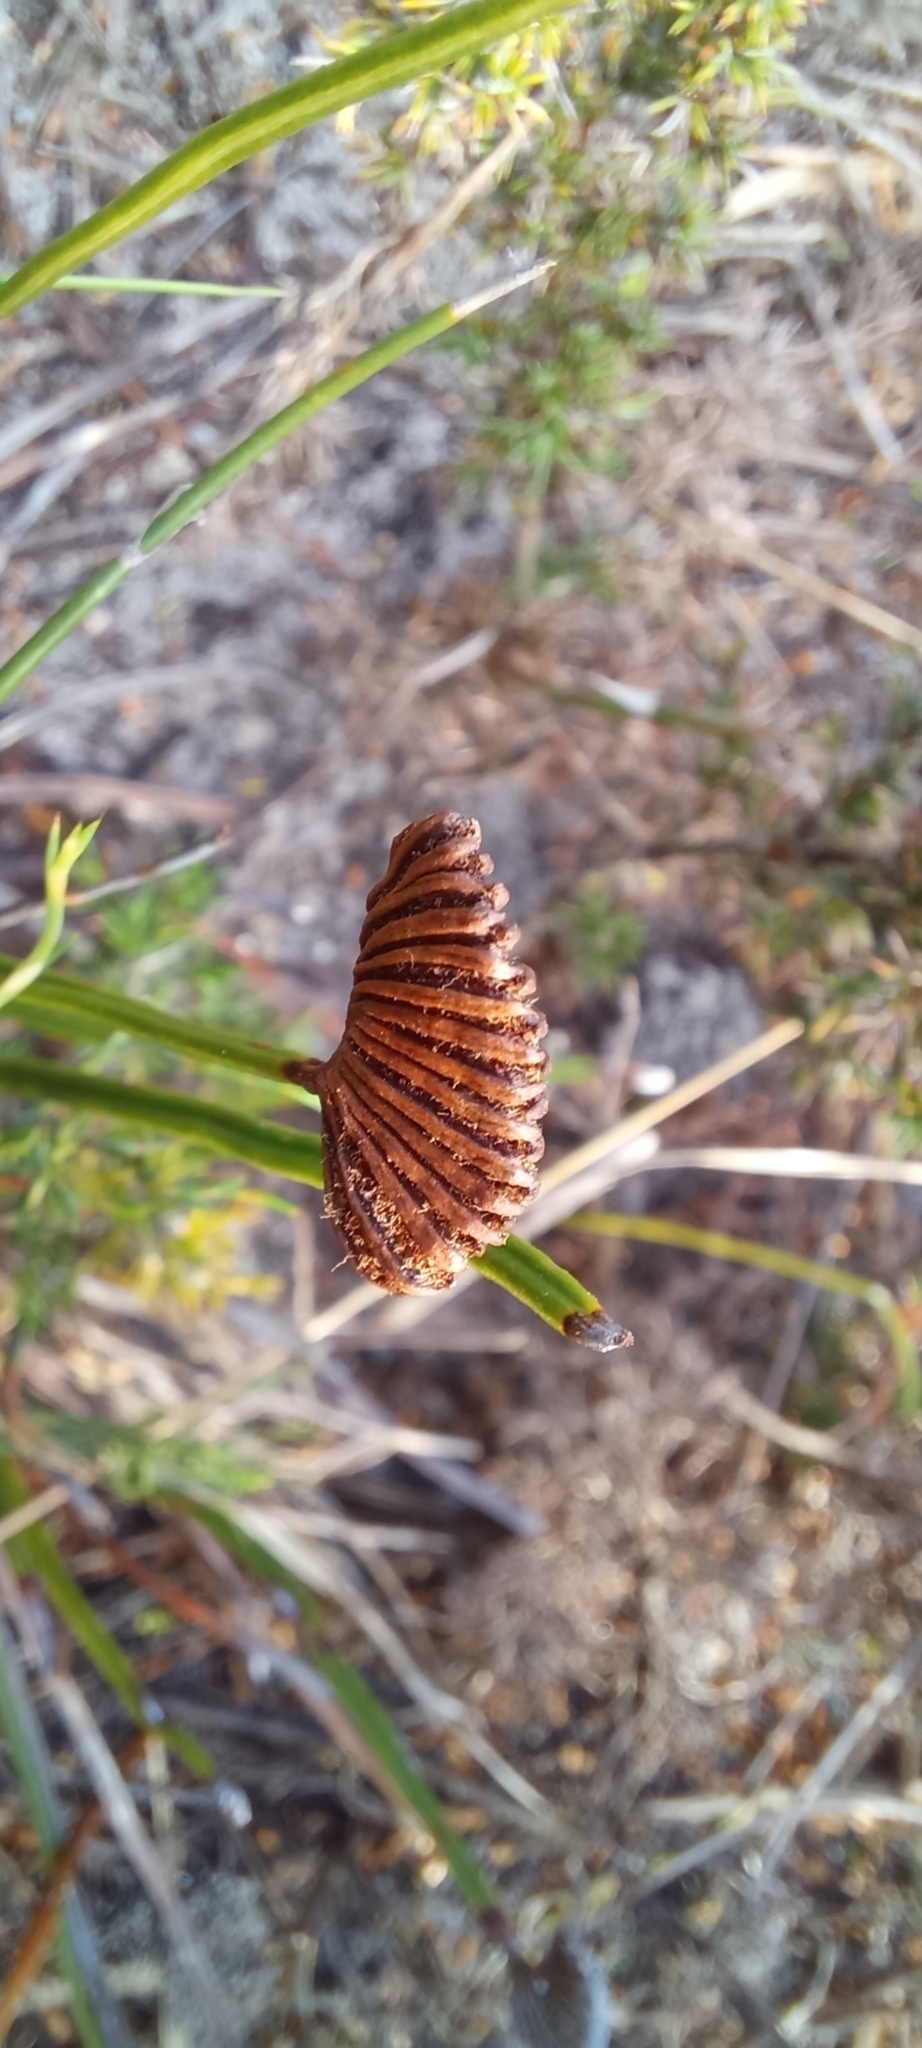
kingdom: Plantae
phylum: Tracheophyta
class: Polypodiopsida
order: Schizaeales
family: Schizaeaceae
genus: Schizaea
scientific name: Schizaea pectinata
